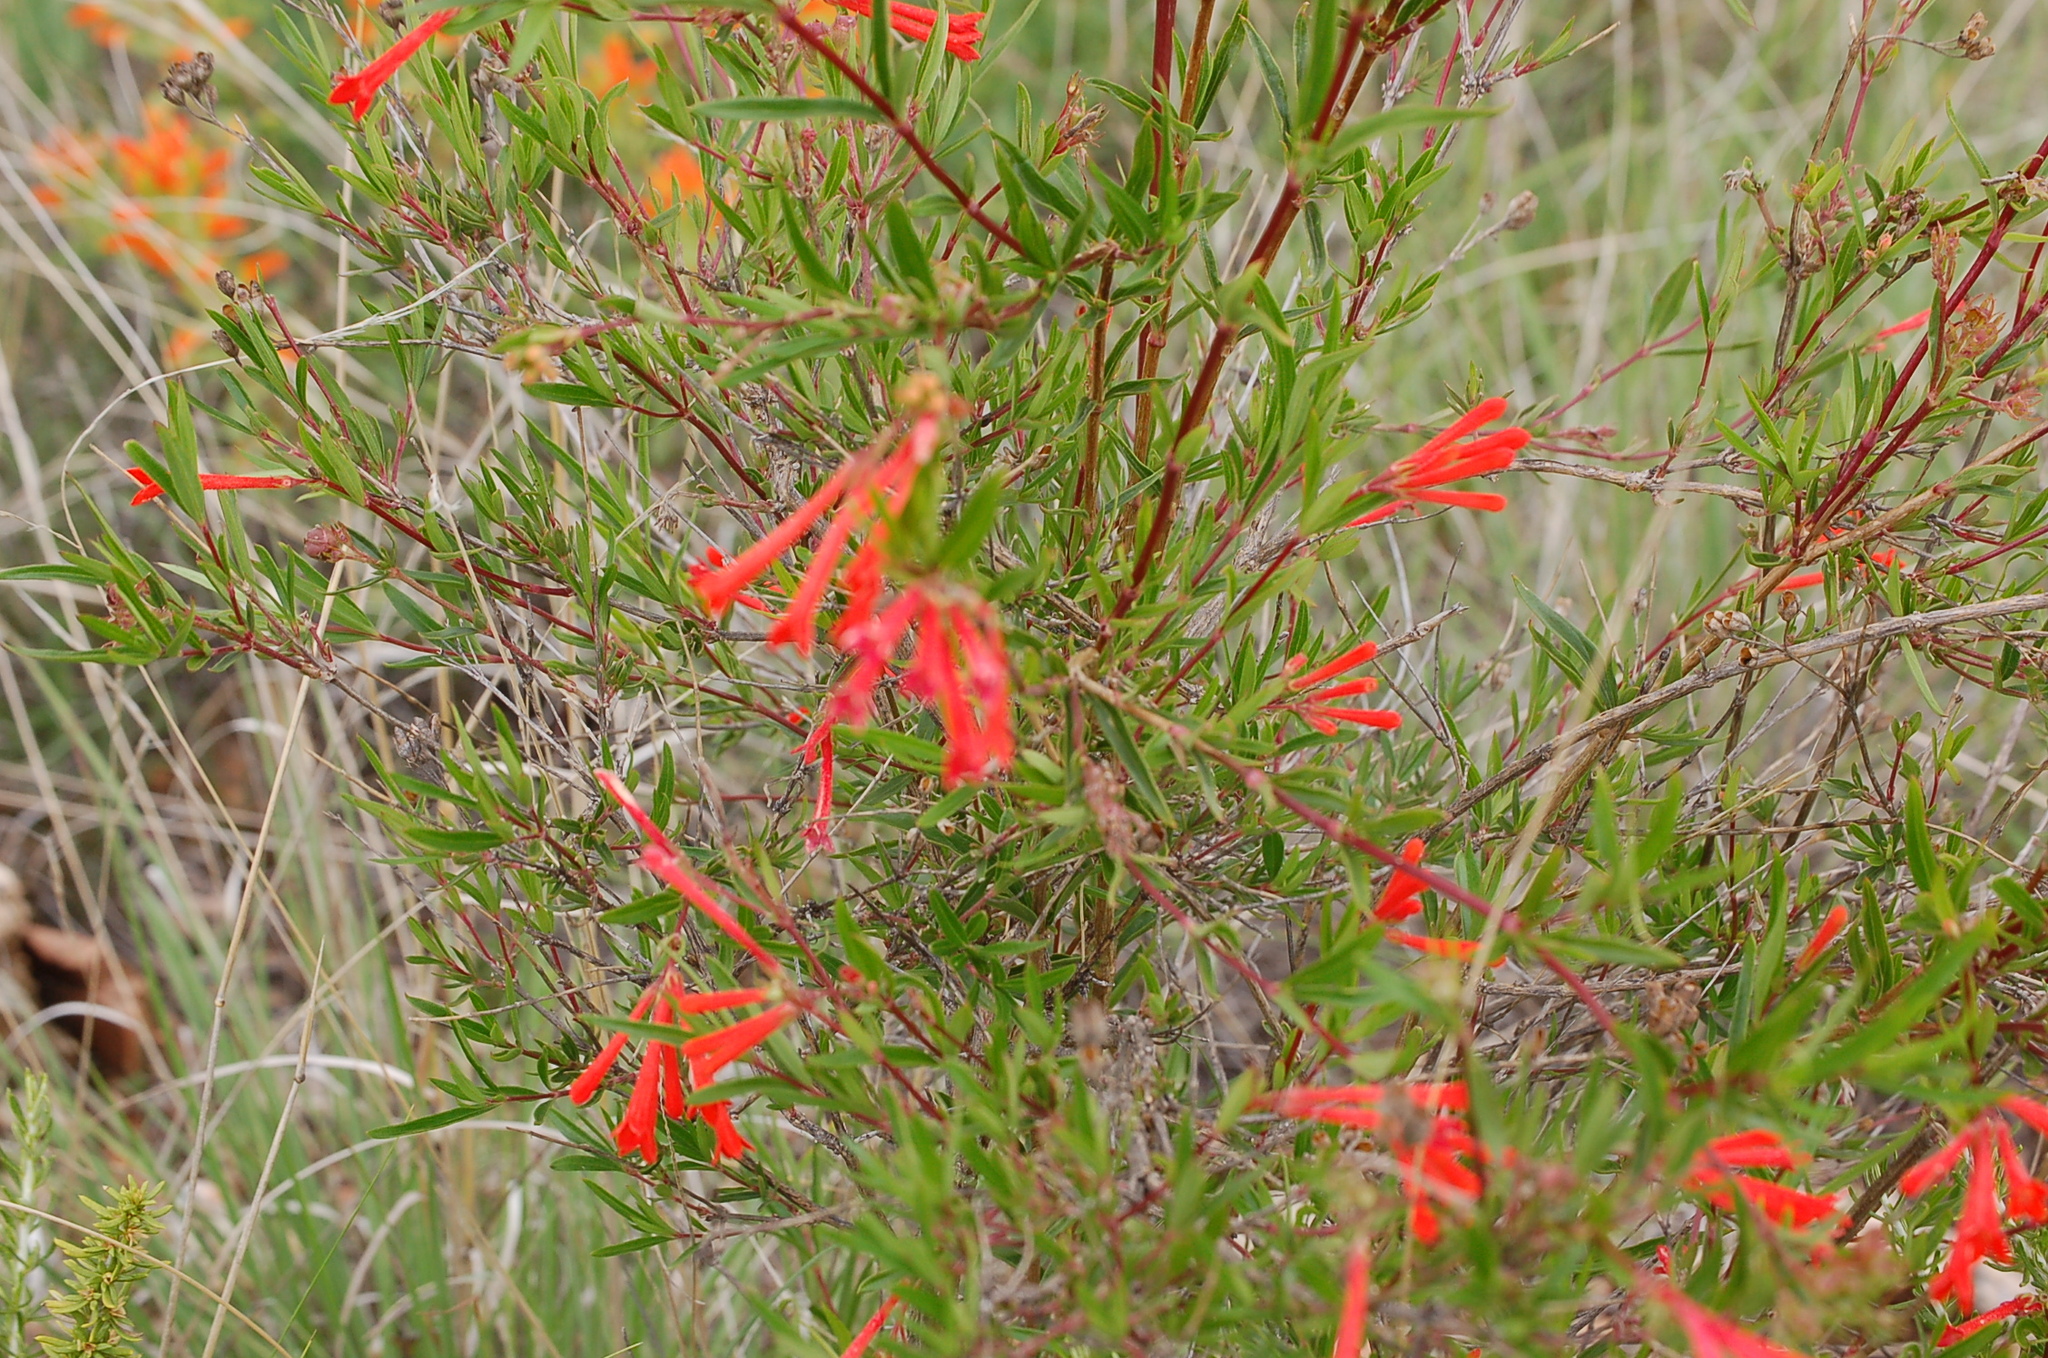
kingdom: Plantae
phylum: Tracheophyta
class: Magnoliopsida
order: Gentianales
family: Rubiaceae
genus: Bouvardia
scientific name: Bouvardia ternifolia
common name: Scarlet bouvardia
